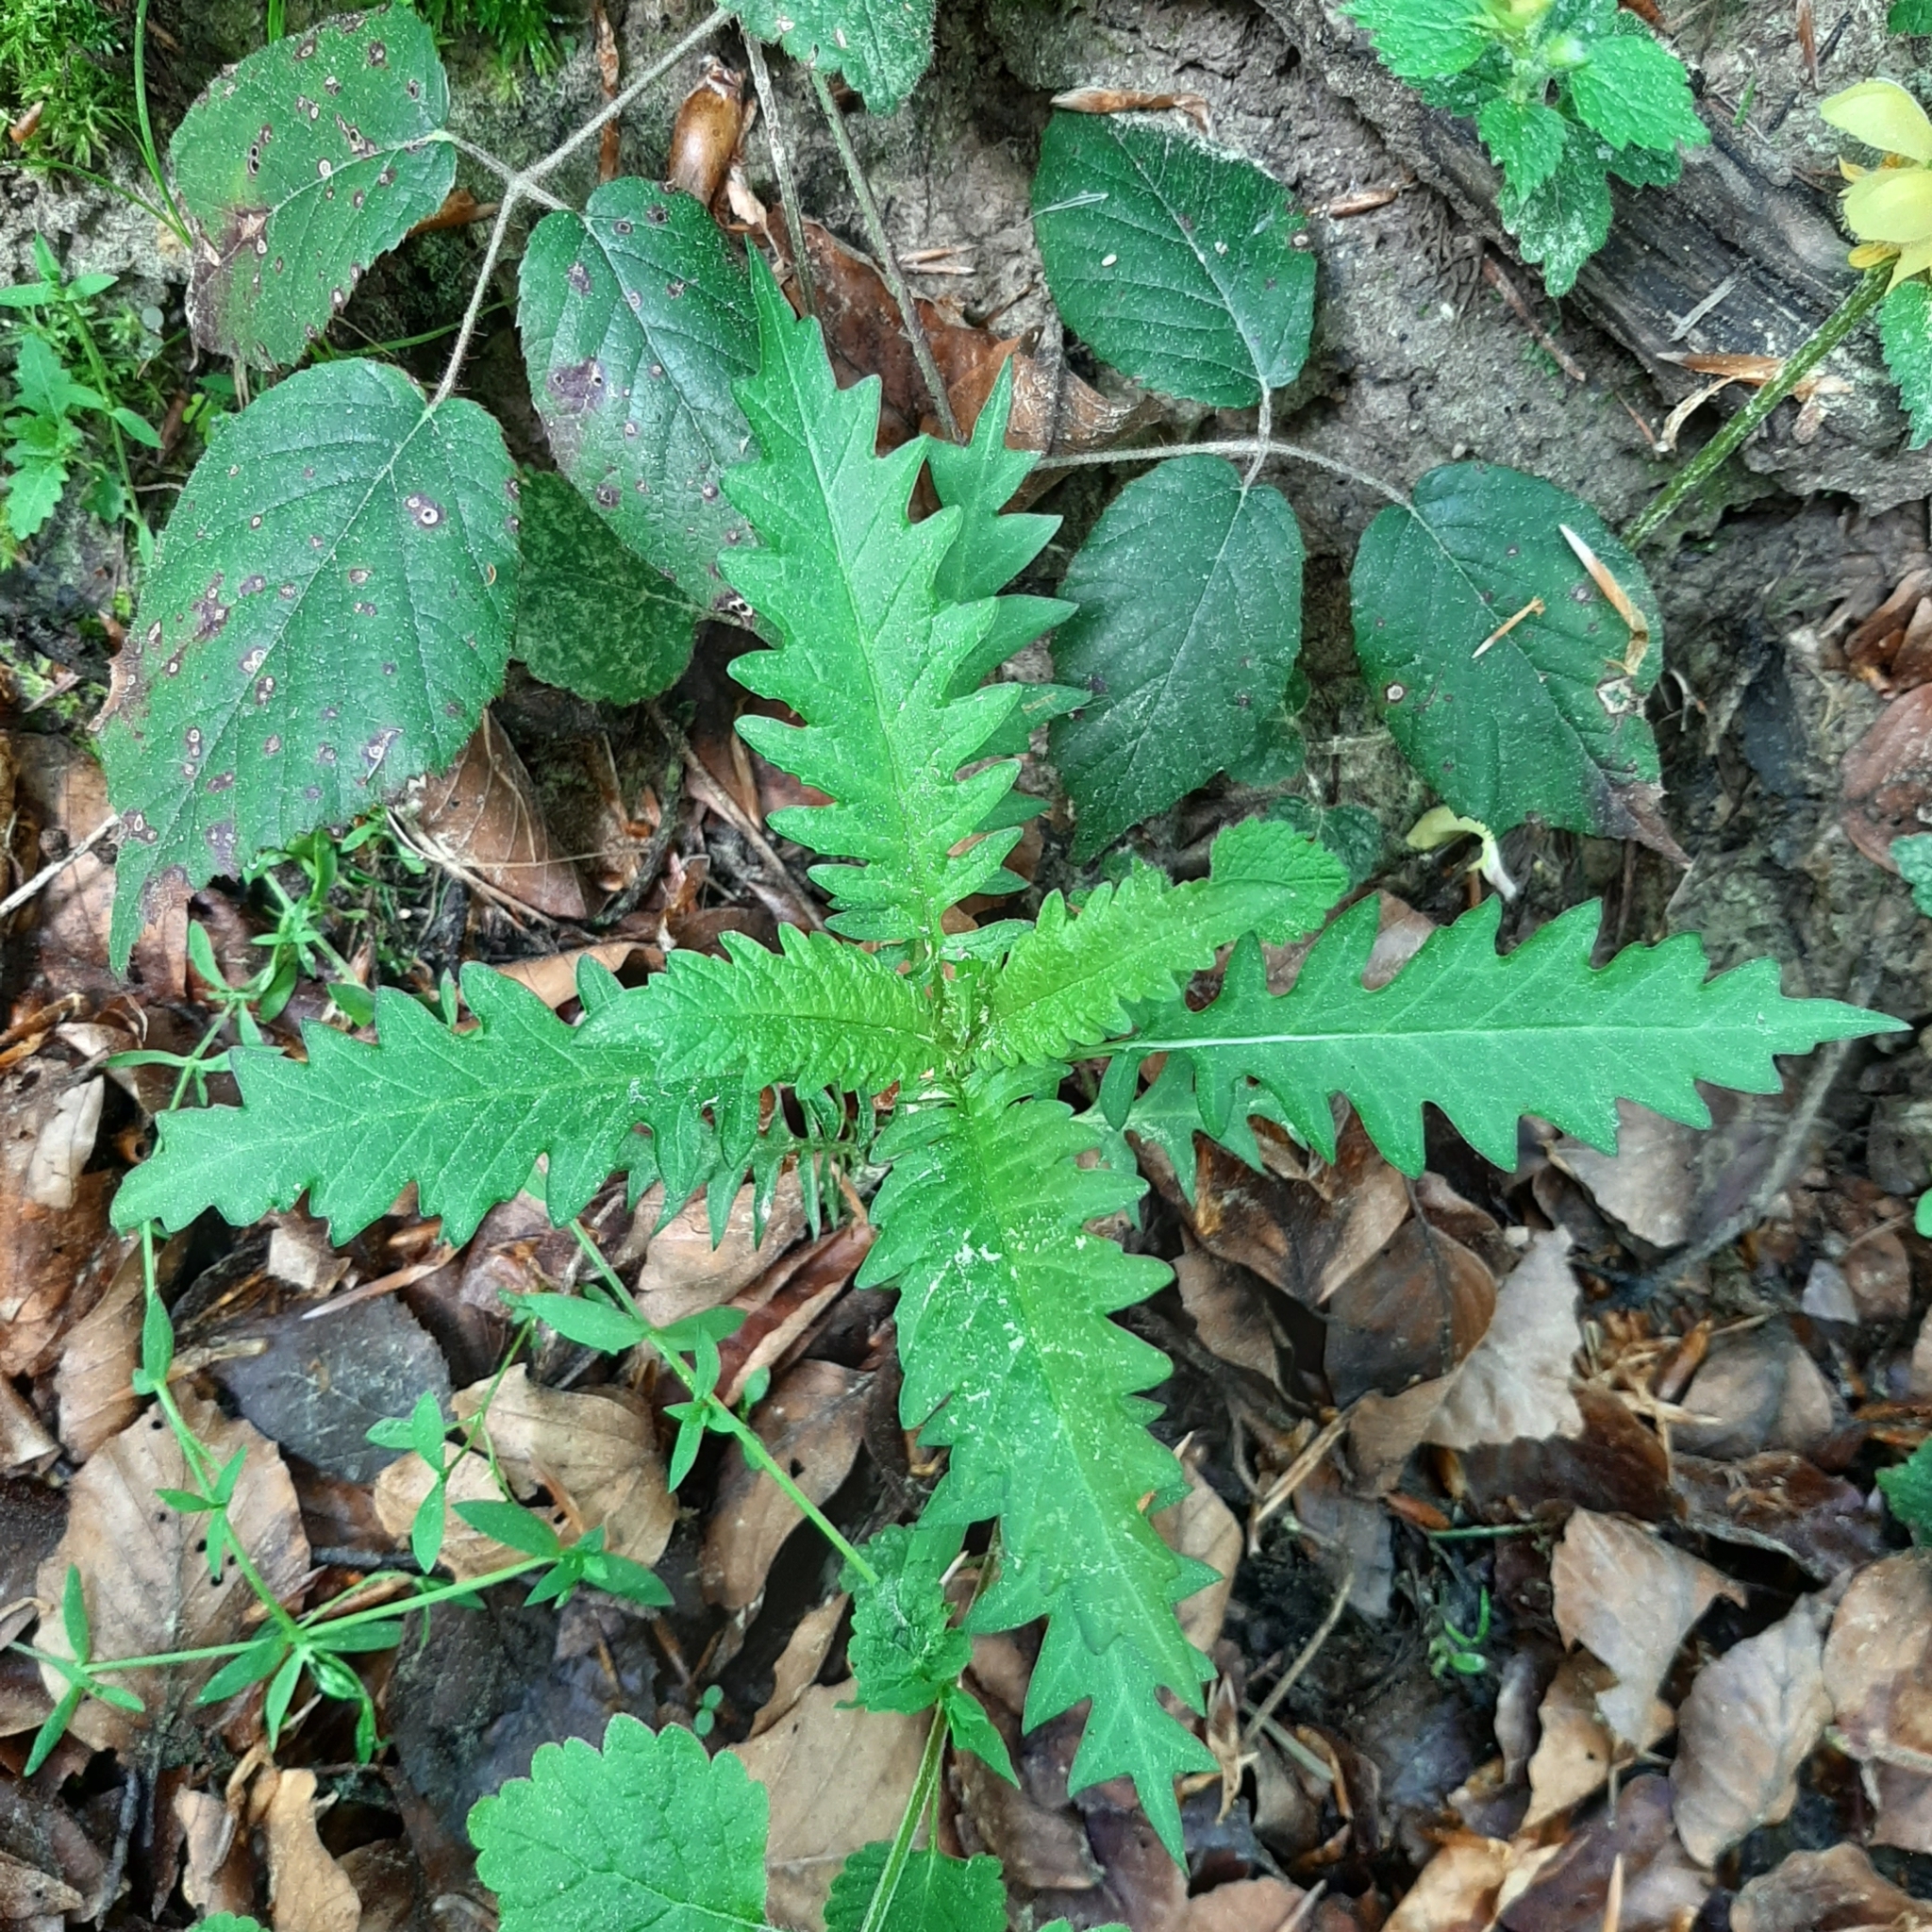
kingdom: Plantae
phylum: Tracheophyta
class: Magnoliopsida
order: Lamiales
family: Lamiaceae
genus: Lycopus
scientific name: Lycopus europaeus
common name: European bugleweed
